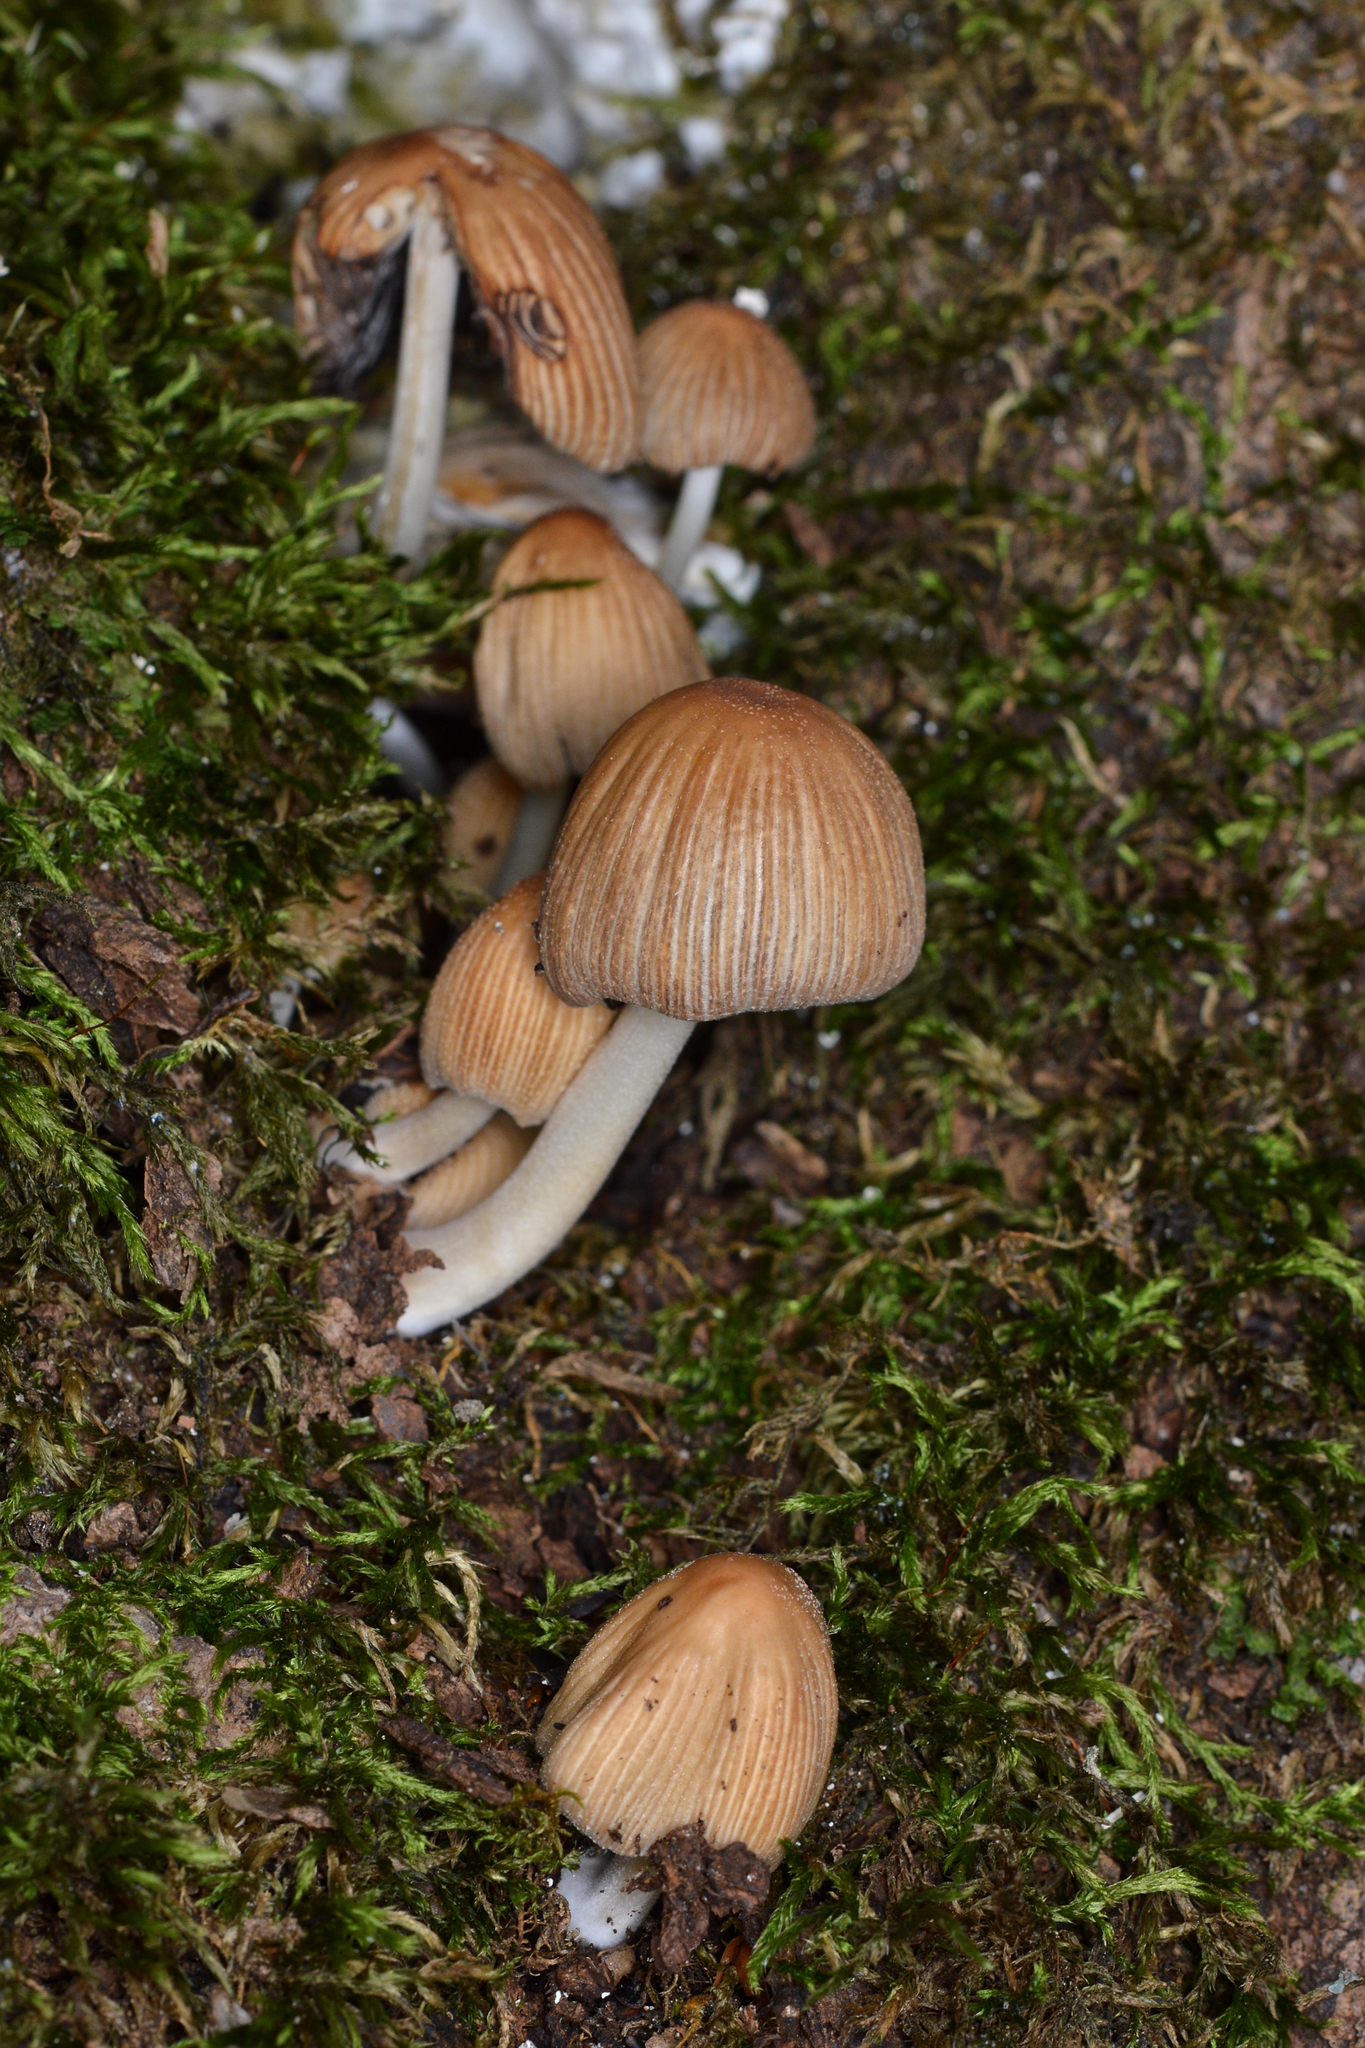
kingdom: Fungi
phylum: Basidiomycota
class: Agaricomycetes
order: Agaricales
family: Psathyrellaceae
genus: Coprinellus
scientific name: Coprinellus micaceus
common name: Glistening ink-cap
